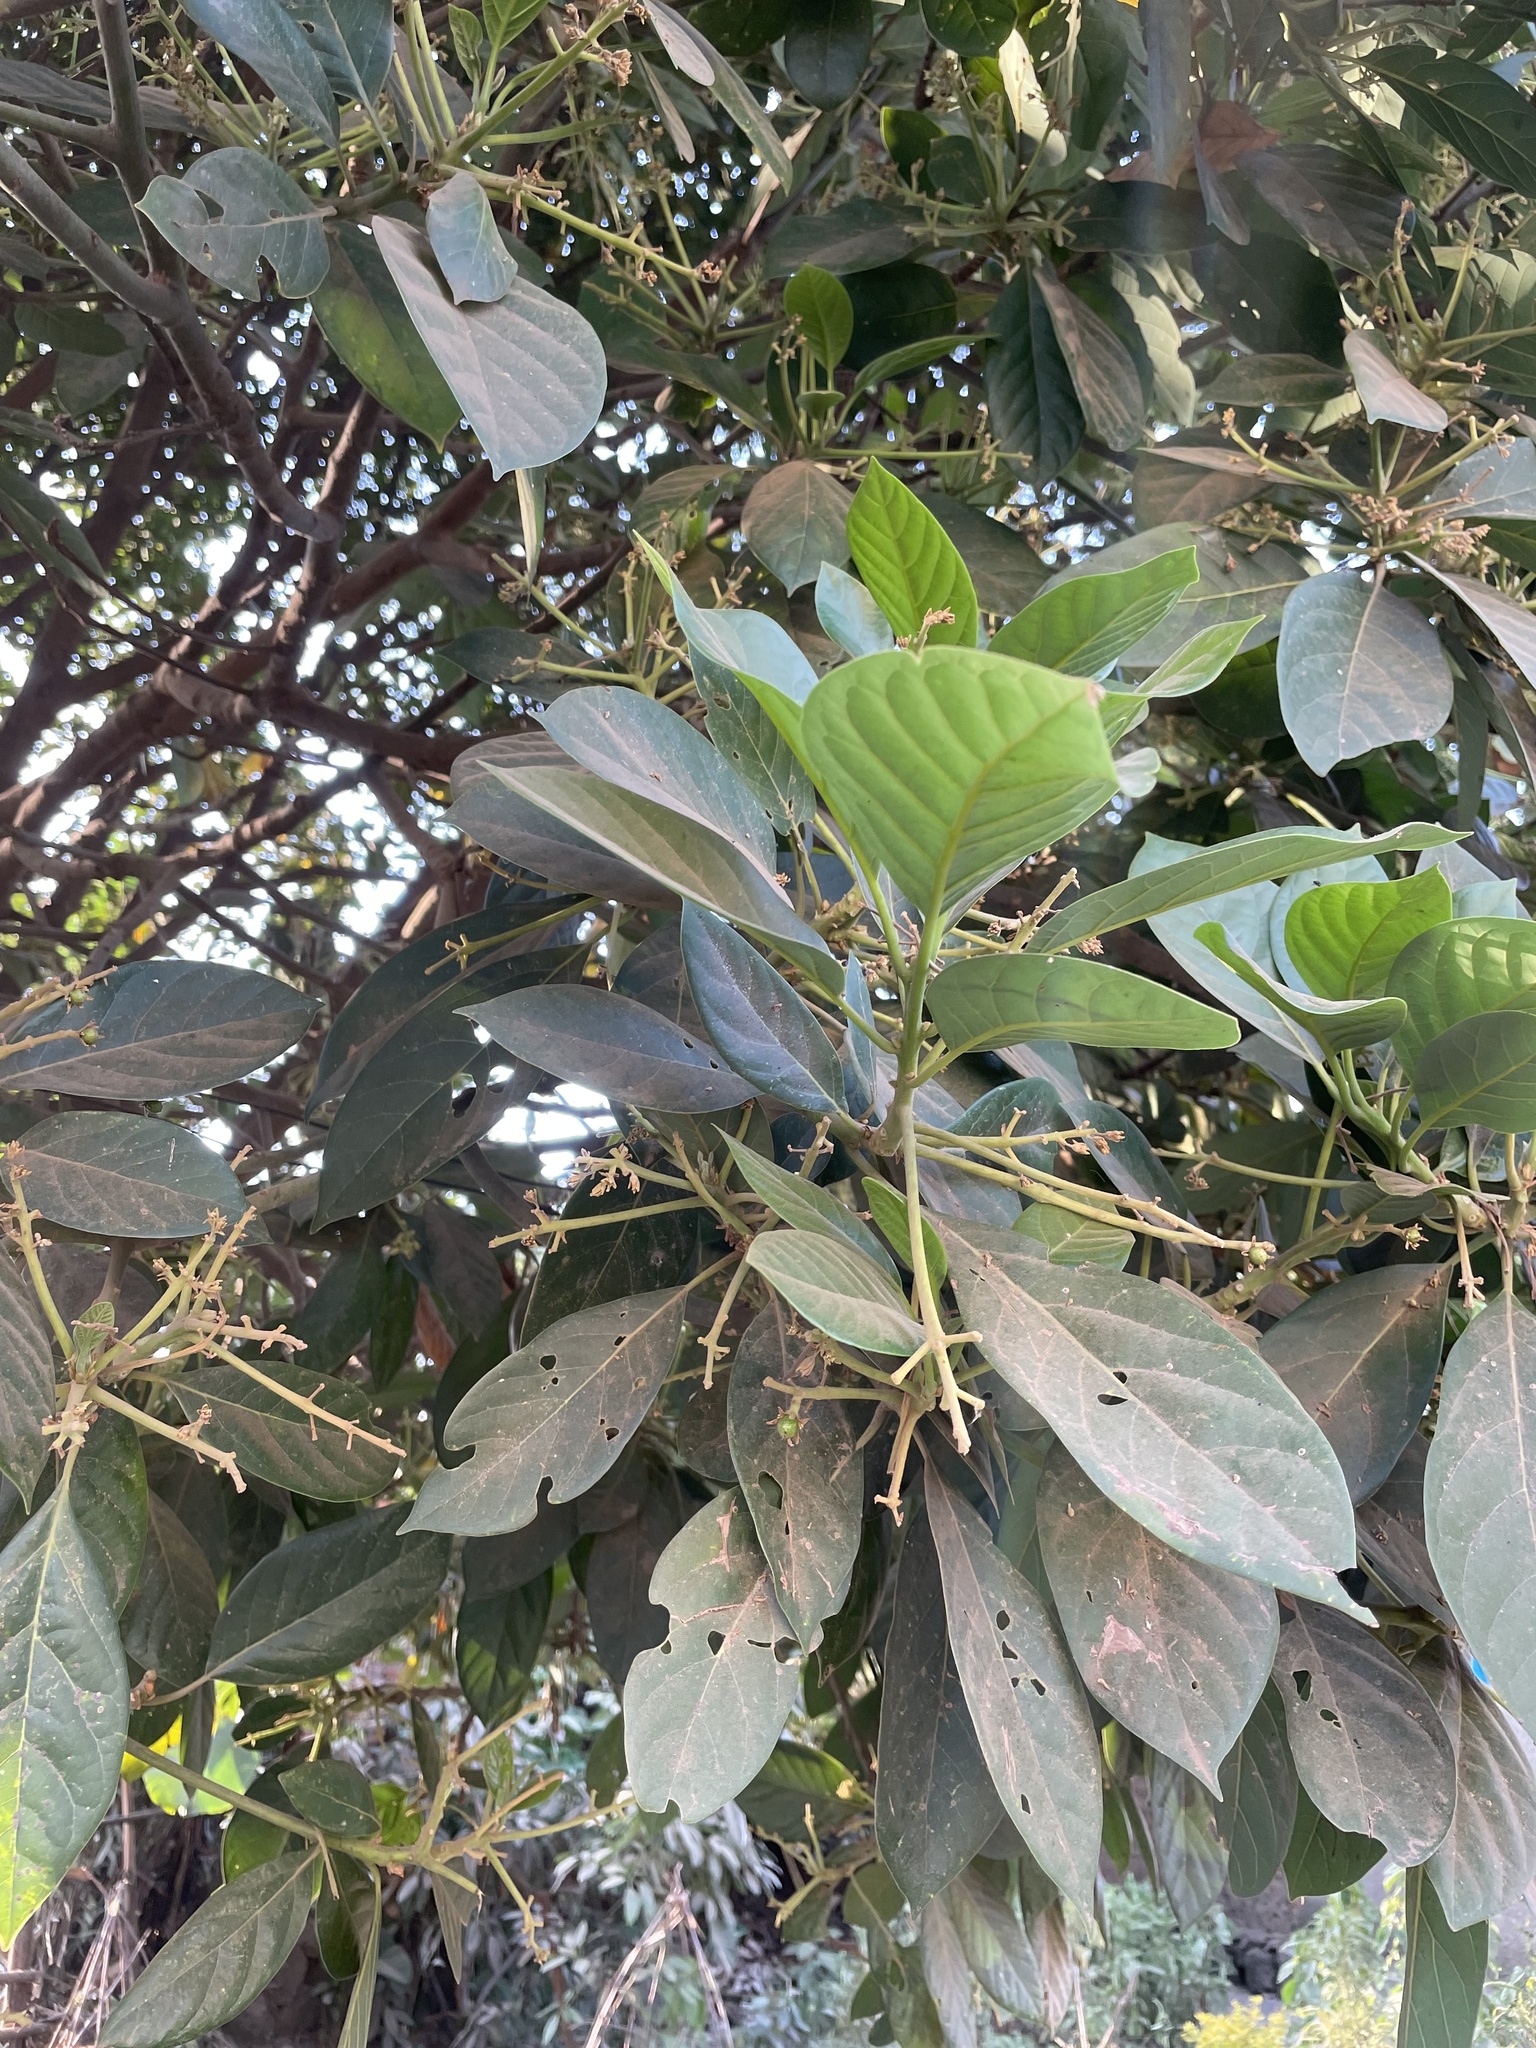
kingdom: Plantae
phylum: Tracheophyta
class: Magnoliopsida
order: Laurales
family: Lauraceae
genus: Persea
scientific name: Persea americana
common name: Avocado
